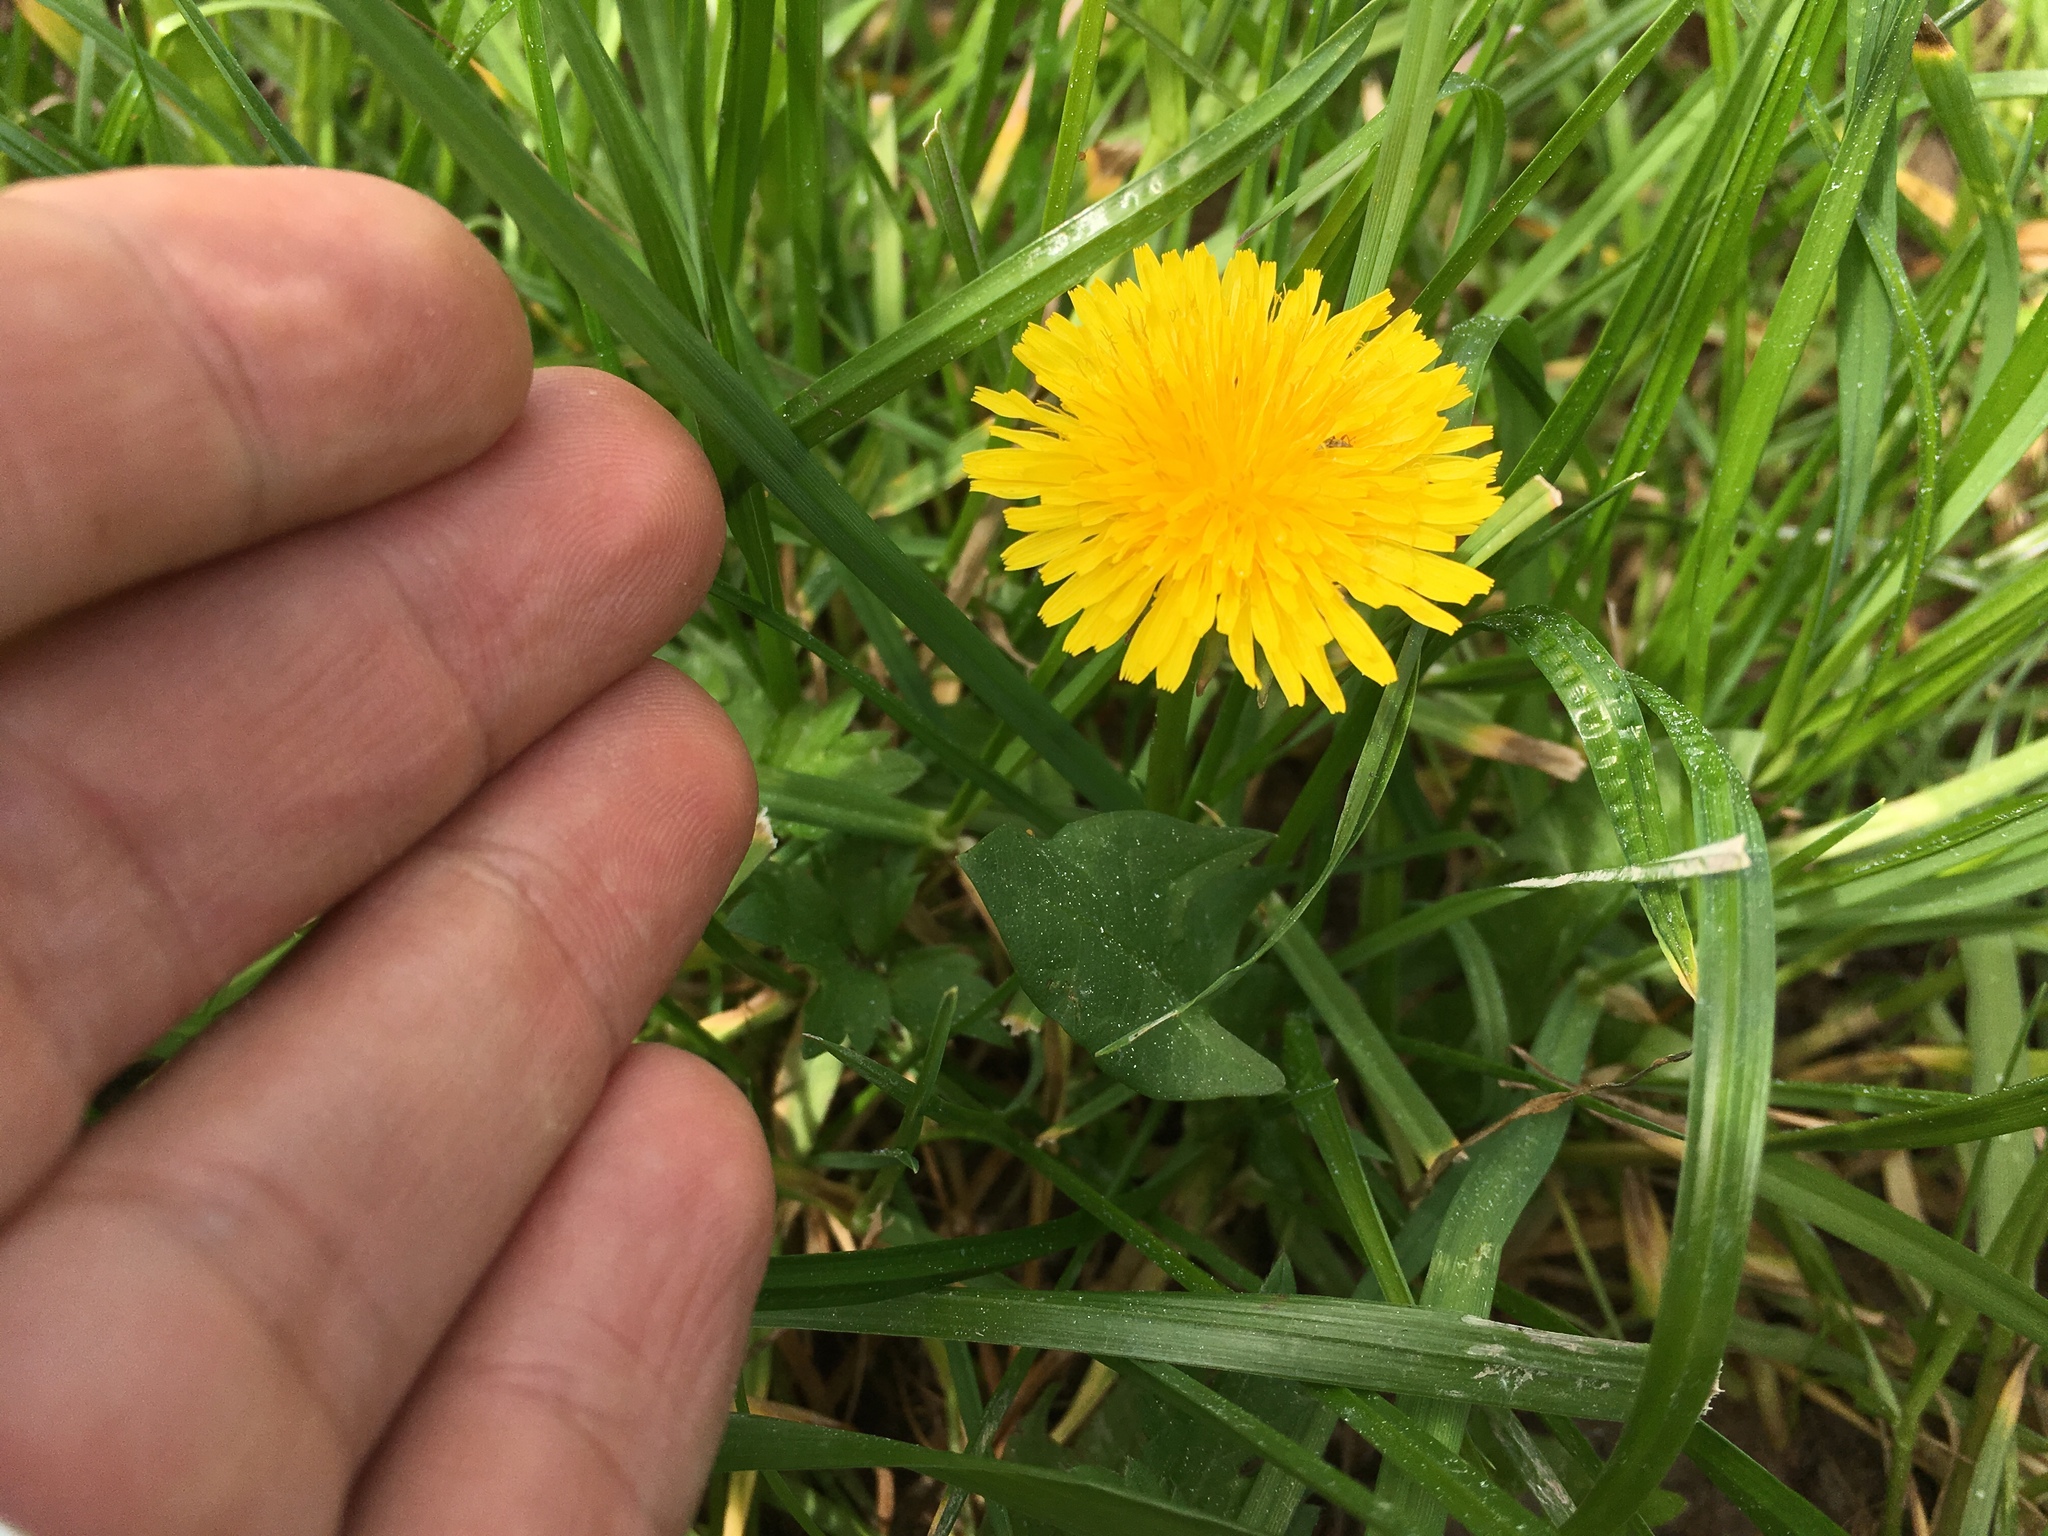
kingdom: Plantae
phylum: Tracheophyta
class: Magnoliopsida
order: Asterales
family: Asteraceae
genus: Taraxacum
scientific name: Taraxacum officinale
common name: Common dandelion
